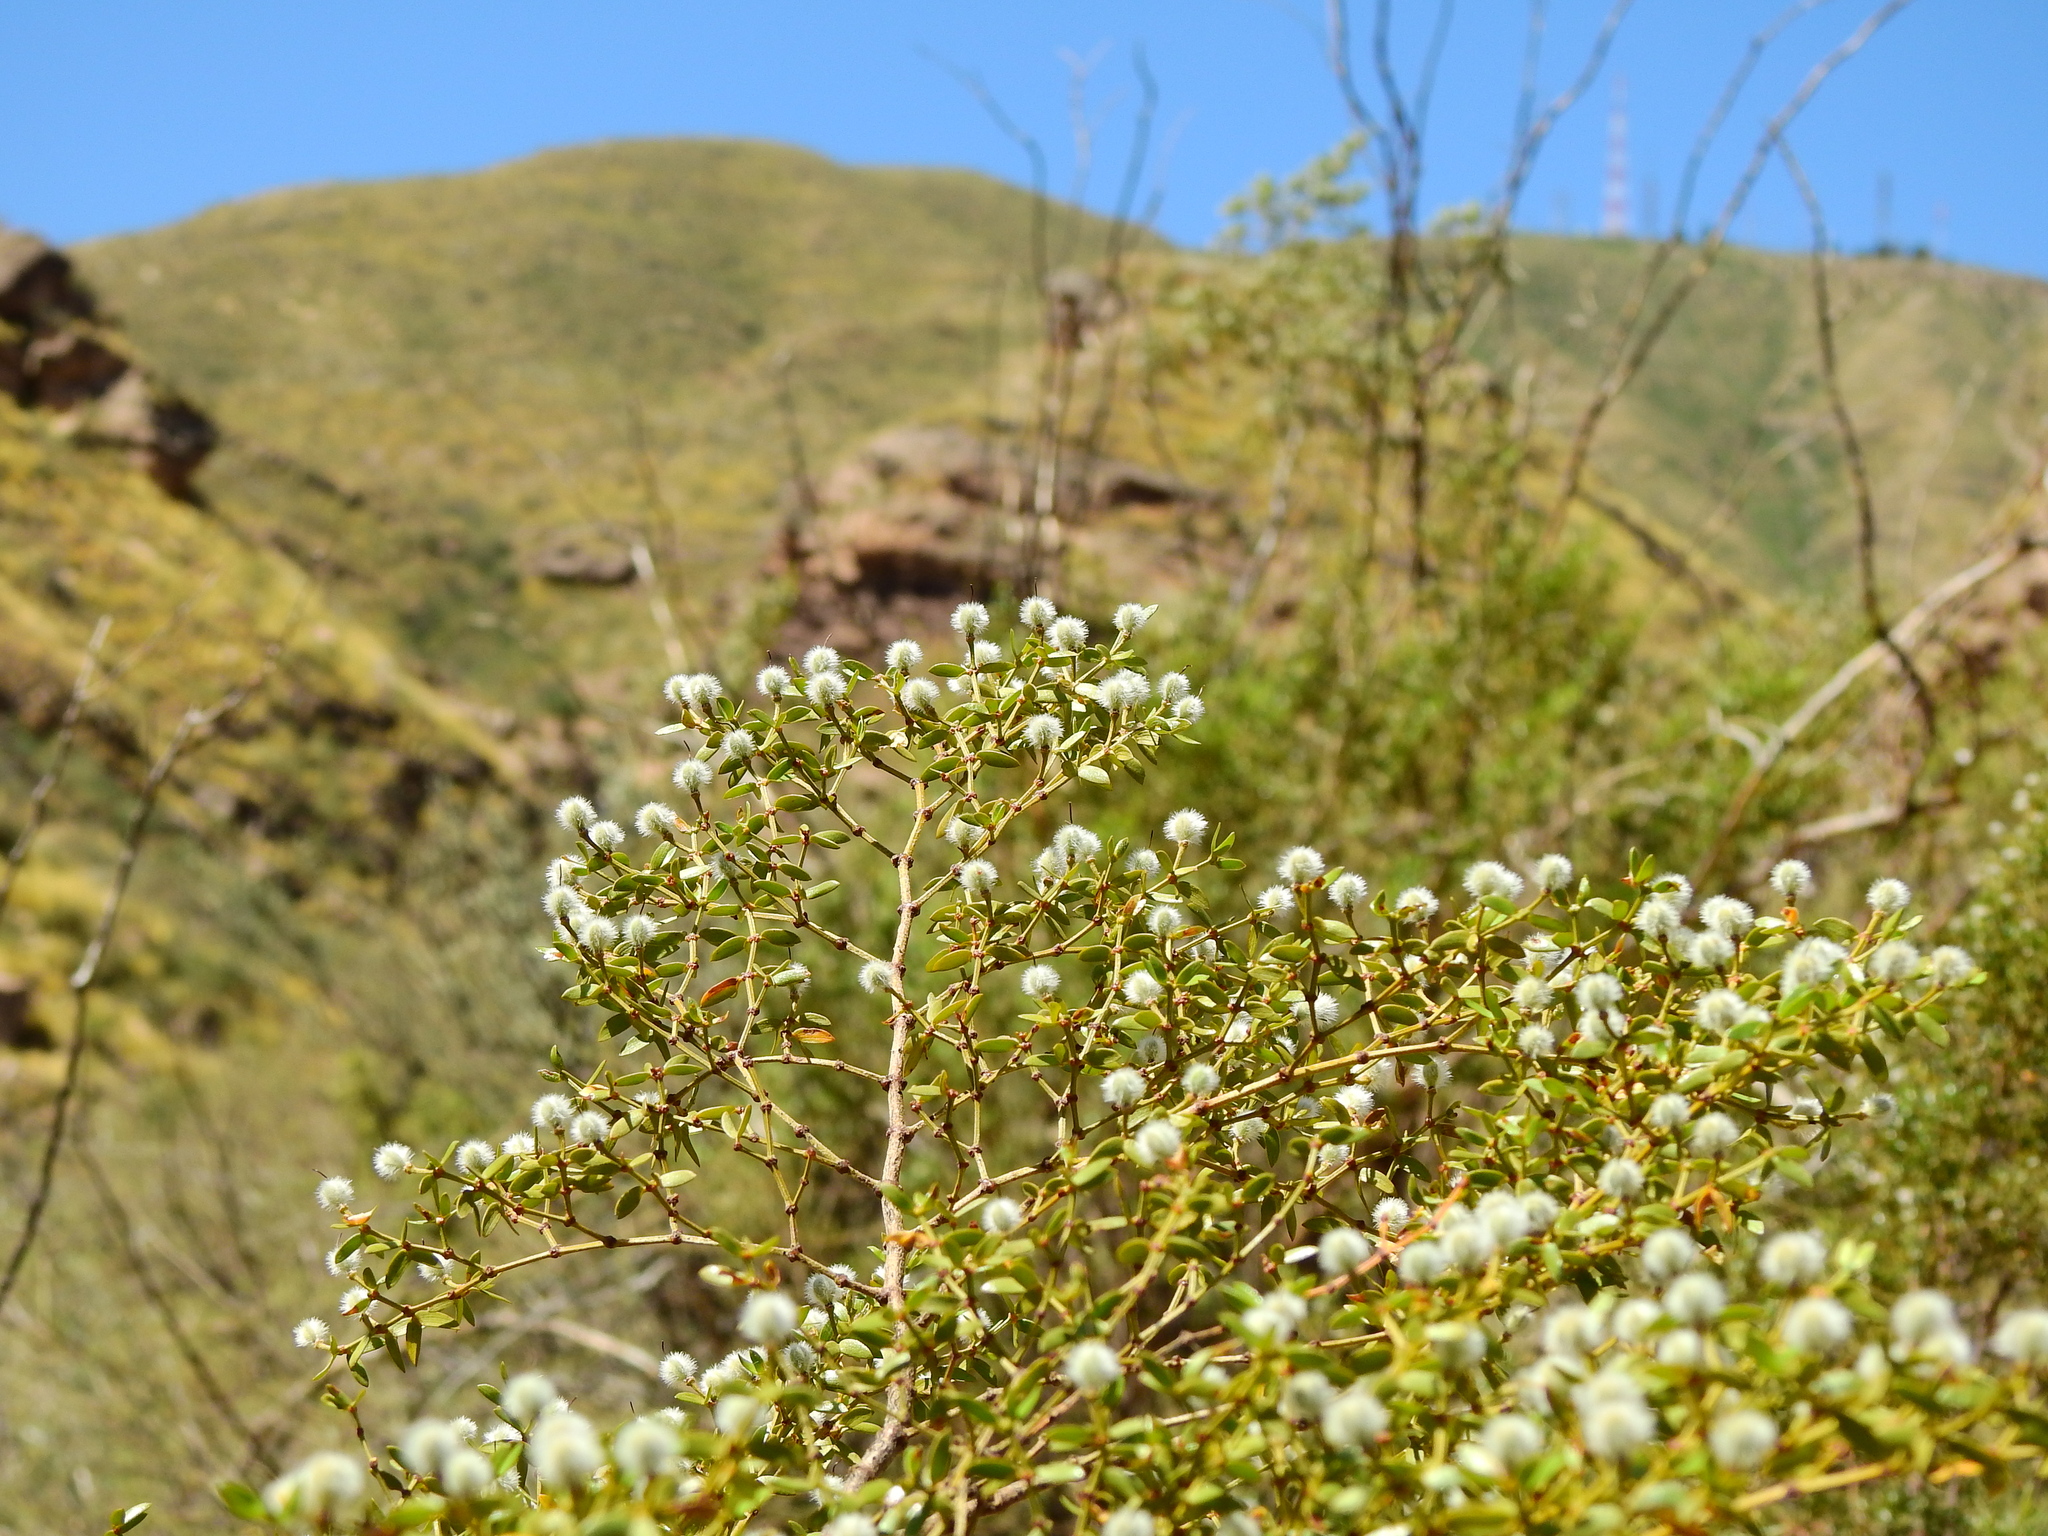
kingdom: Plantae
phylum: Tracheophyta
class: Magnoliopsida
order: Zygophyllales
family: Zygophyllaceae
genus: Larrea
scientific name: Larrea divaricata
